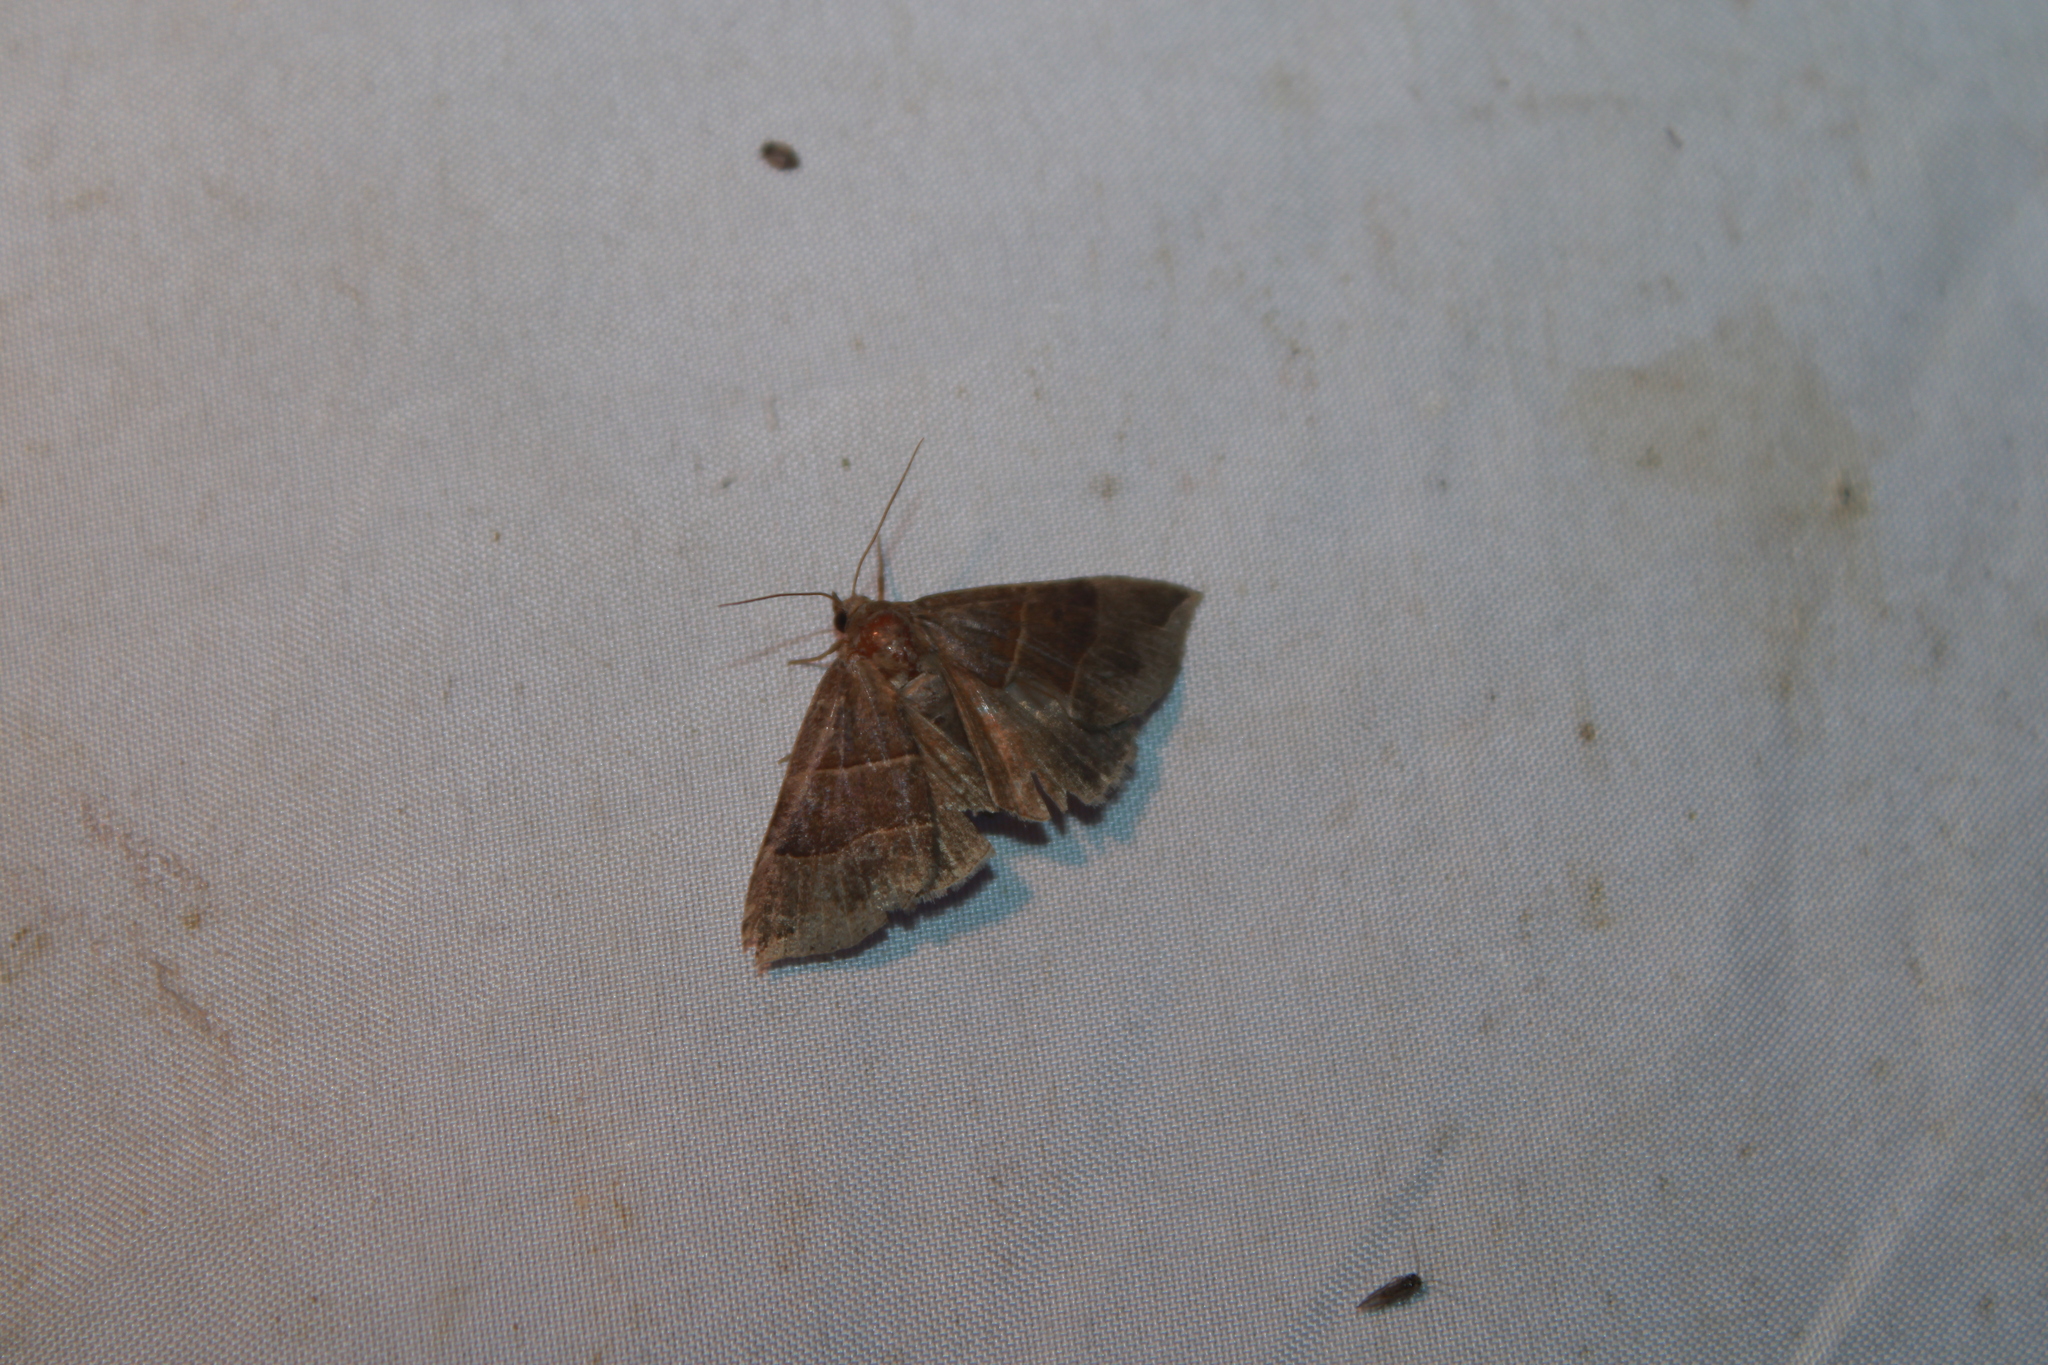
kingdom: Animalia
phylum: Arthropoda
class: Insecta
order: Lepidoptera
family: Erebidae
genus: Parallelia
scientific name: Parallelia bistriaris
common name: Maple looper moth
